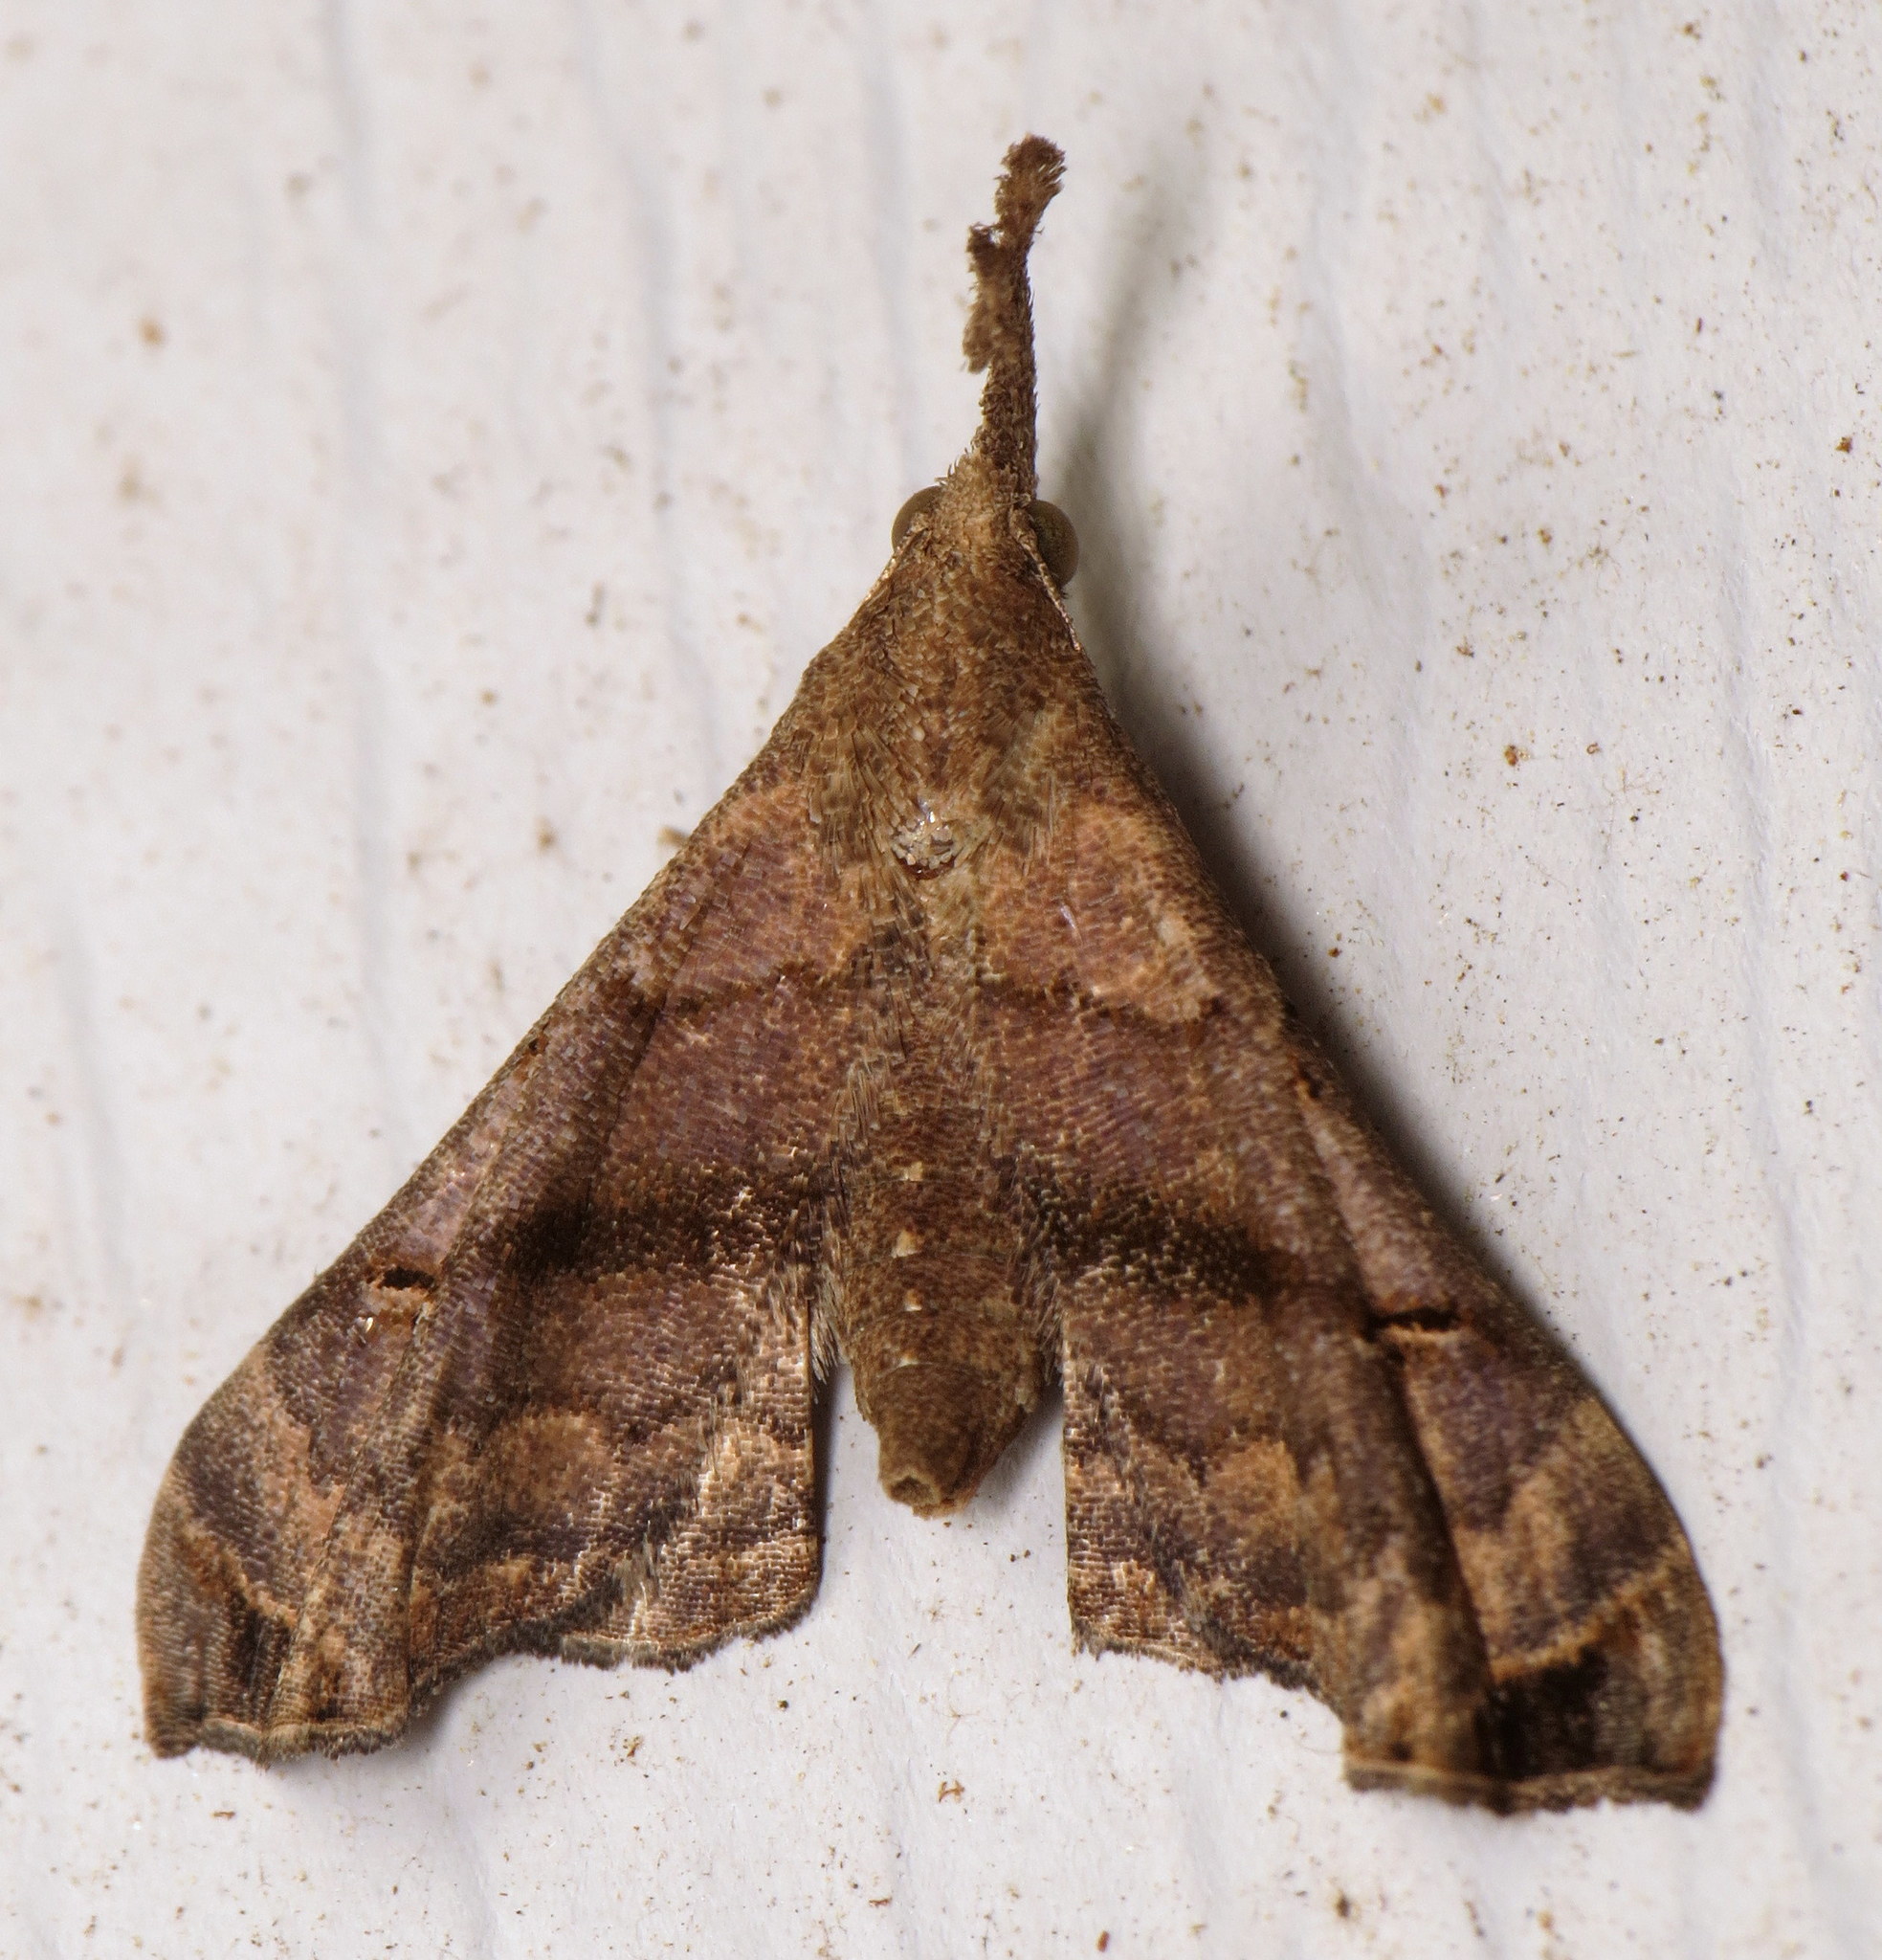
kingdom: Animalia
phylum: Arthropoda
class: Insecta
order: Lepidoptera
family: Erebidae
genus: Palthis
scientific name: Palthis asopialis
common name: Faint-spotted palthis moth
